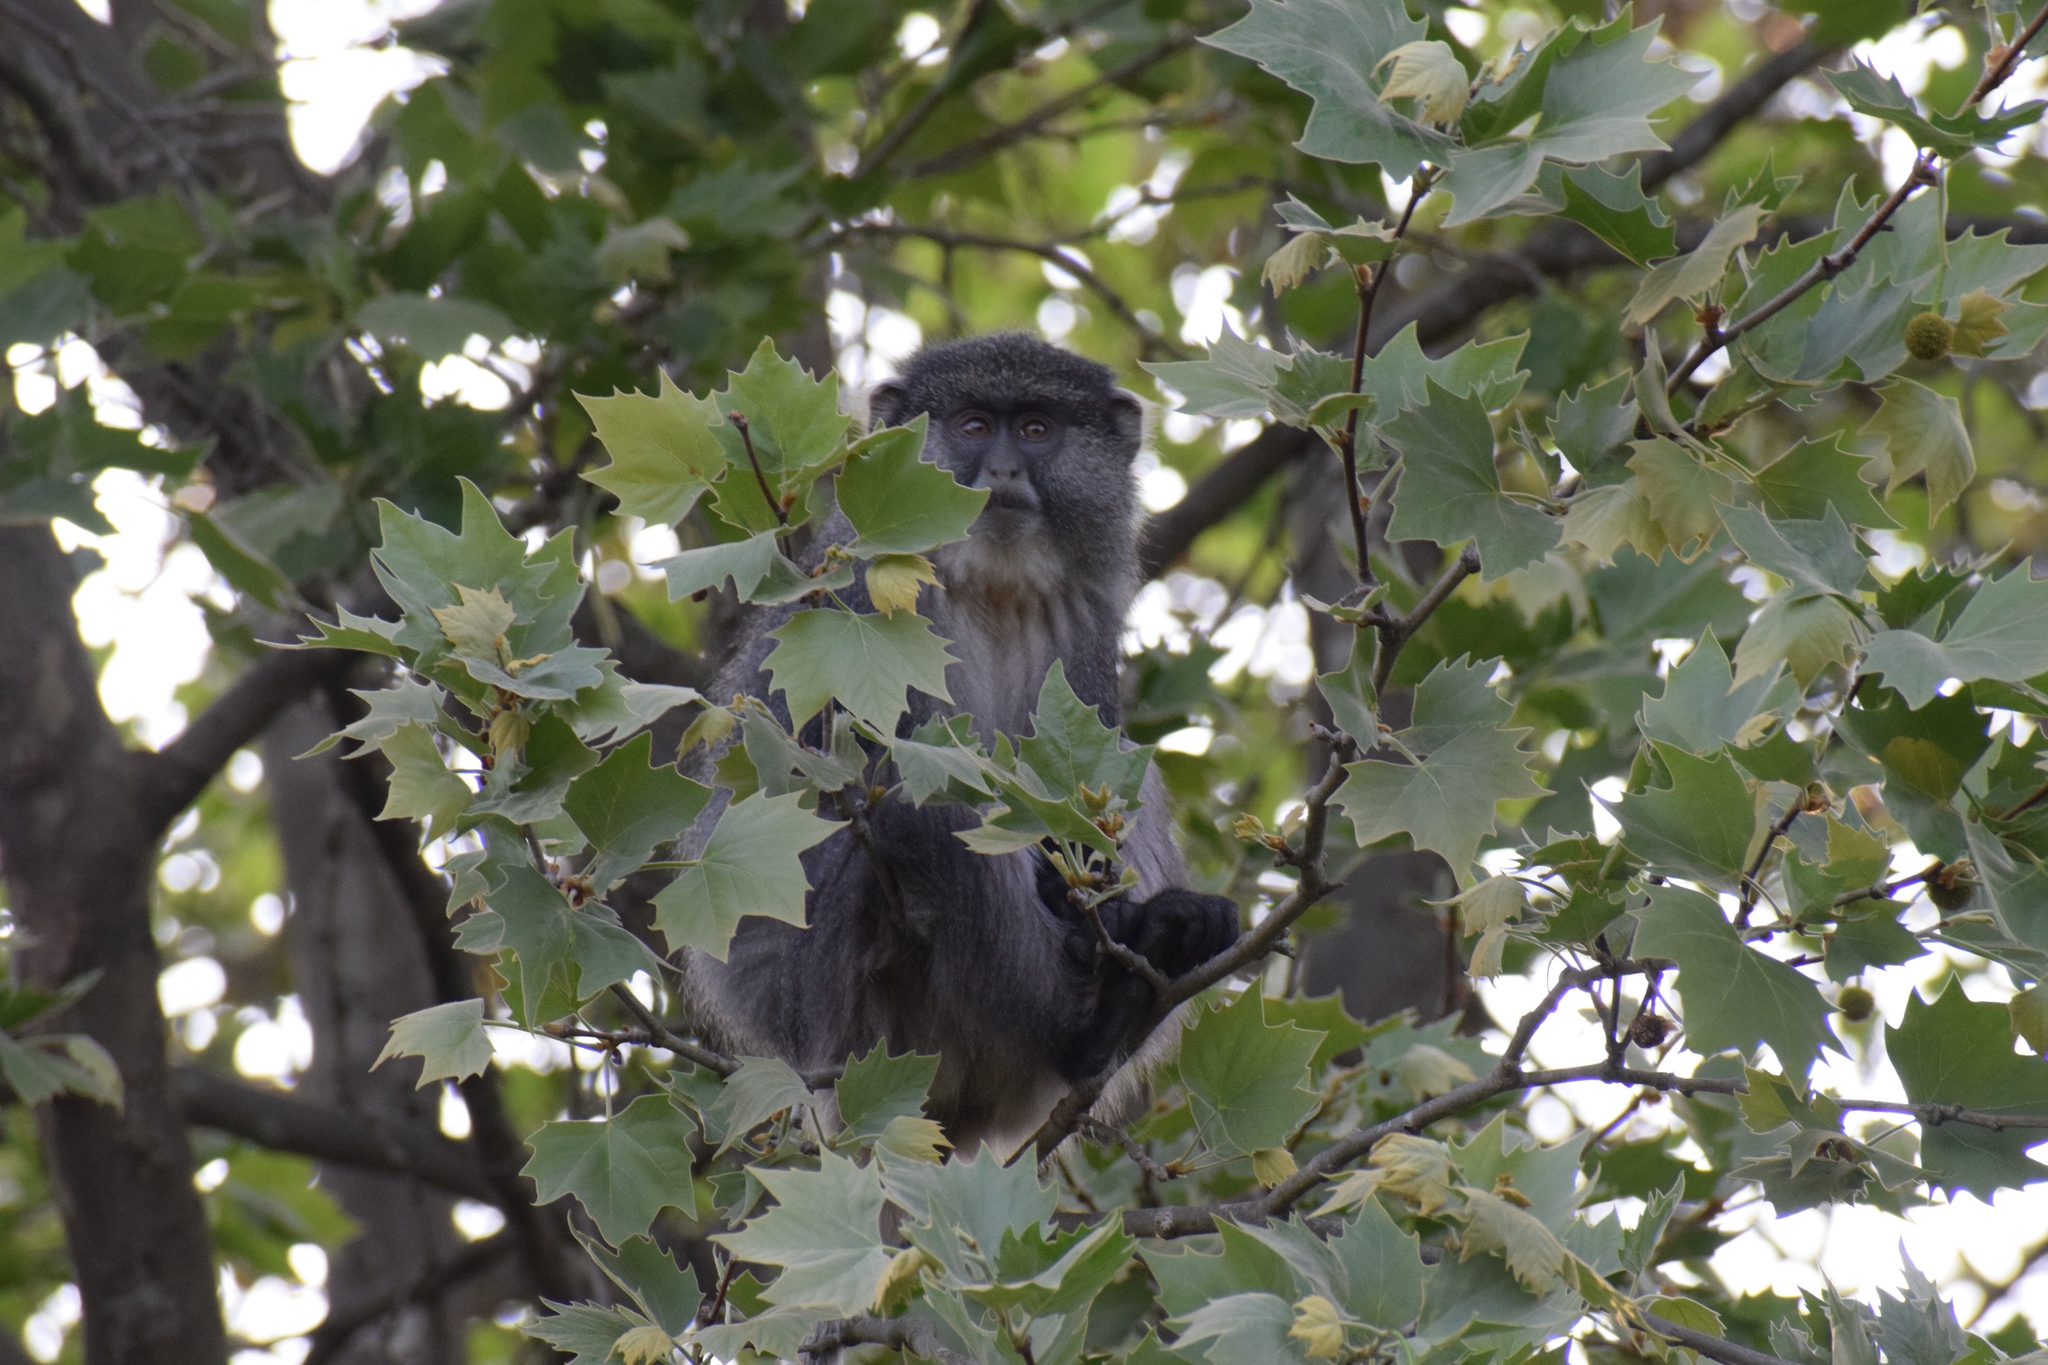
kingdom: Animalia
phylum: Chordata
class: Mammalia
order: Primates
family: Cercopithecidae
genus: Cercopithecus
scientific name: Cercopithecus mitis
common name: Blue monkey
